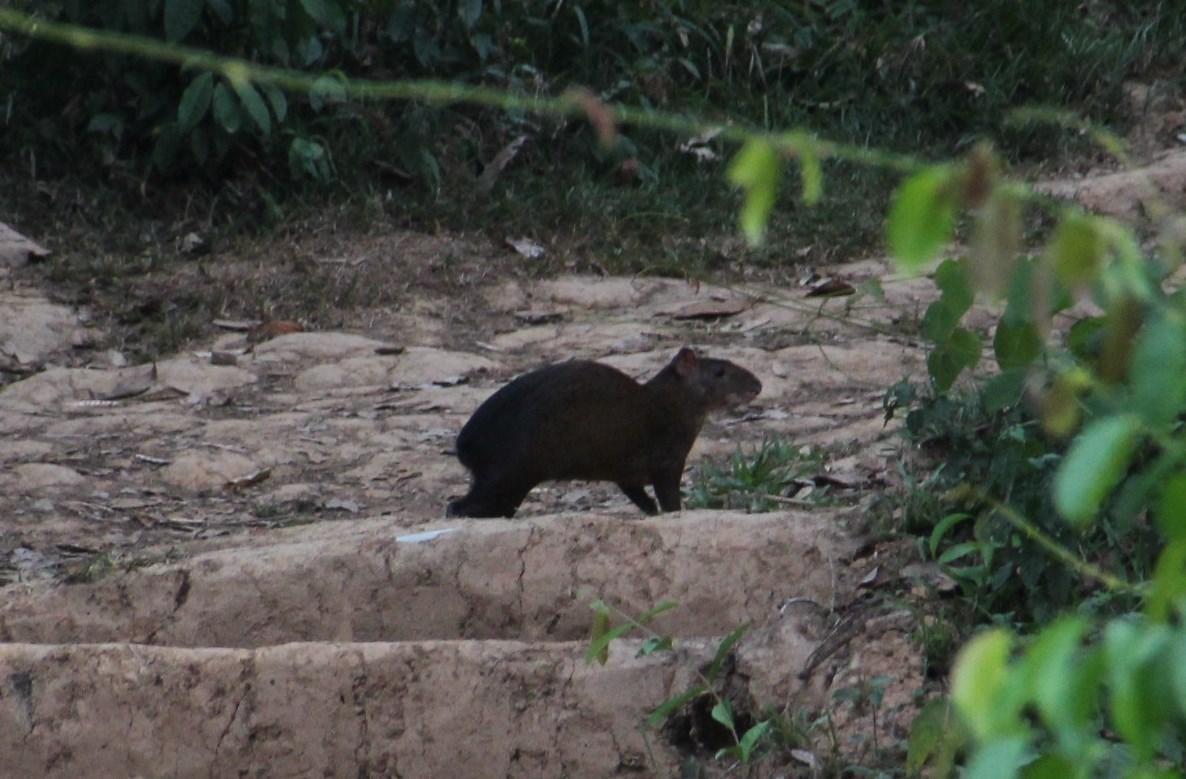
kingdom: Animalia
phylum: Chordata
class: Mammalia
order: Rodentia
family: Dasyproctidae
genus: Dasyprocta
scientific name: Dasyprocta variegata
